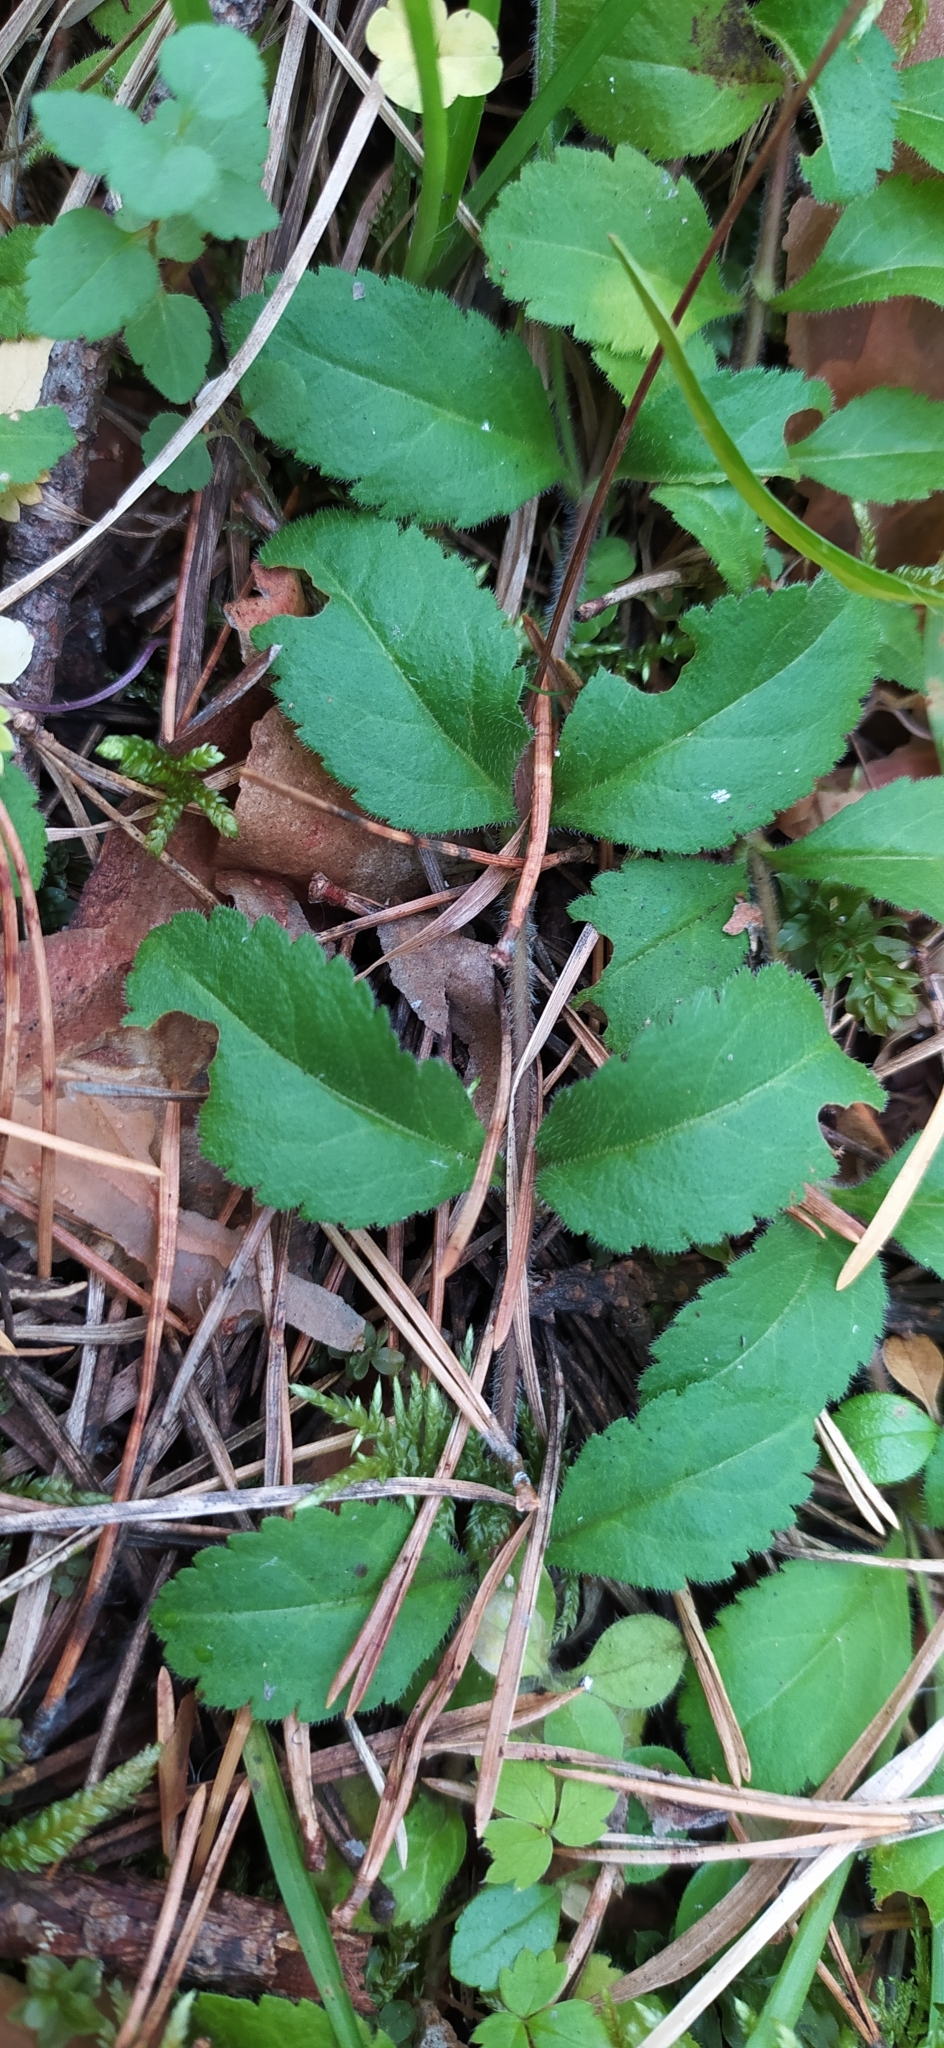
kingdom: Plantae
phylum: Tracheophyta
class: Magnoliopsida
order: Lamiales
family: Plantaginaceae
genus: Veronica
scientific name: Veronica officinalis
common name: Common speedwell
